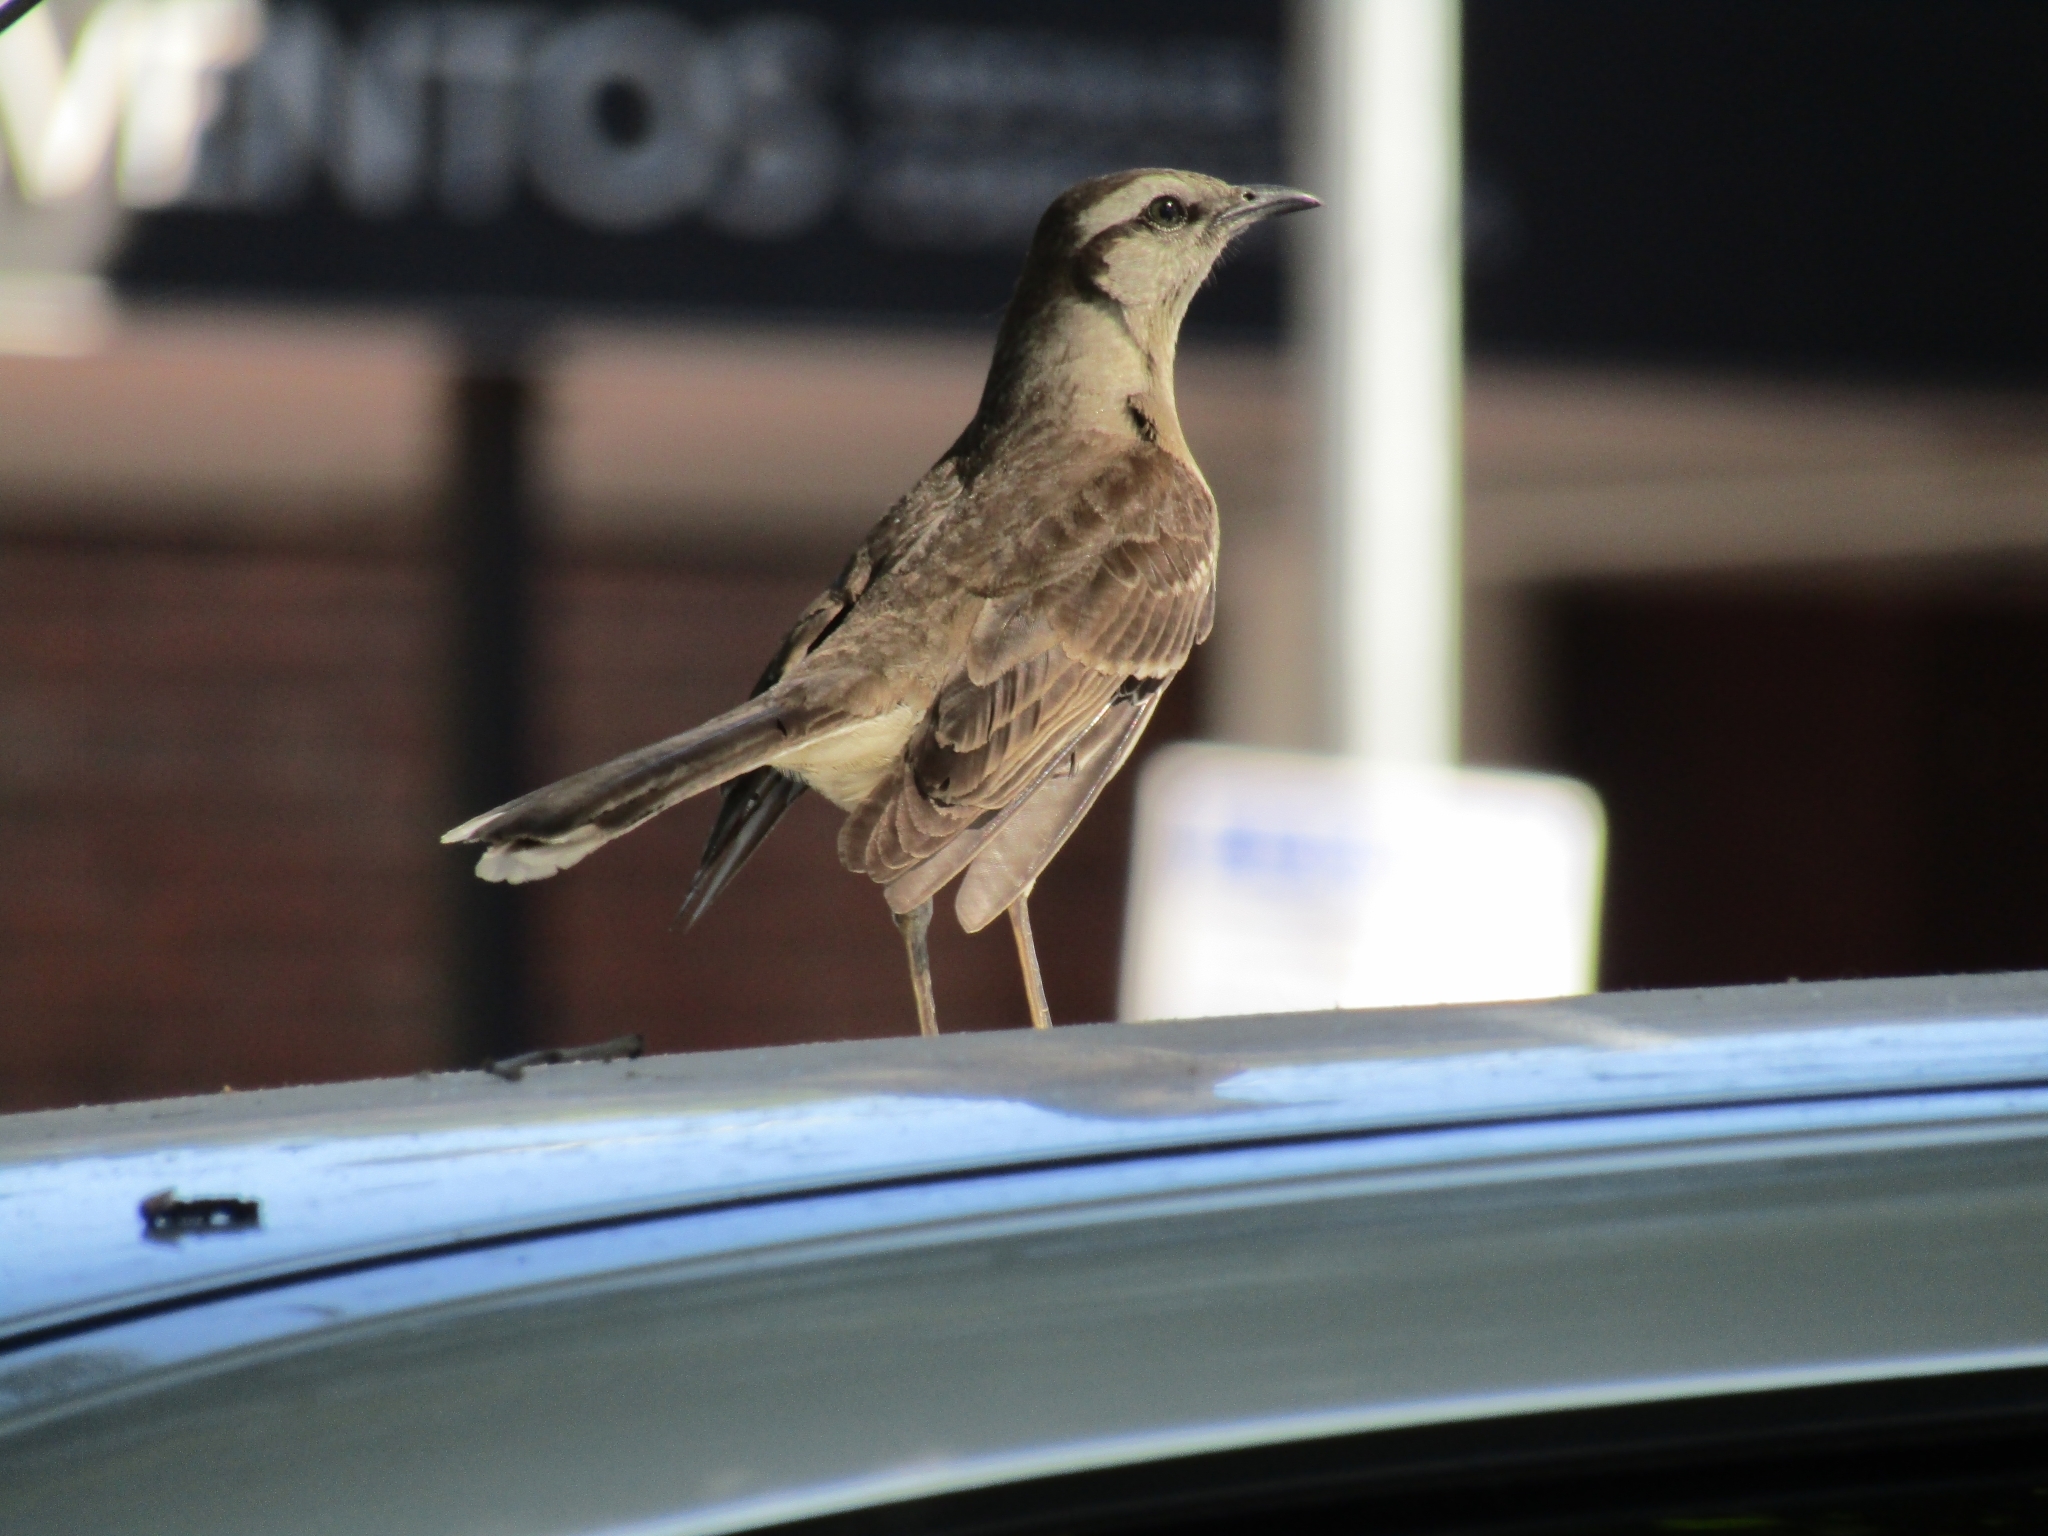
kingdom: Animalia
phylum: Chordata
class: Aves
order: Passeriformes
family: Mimidae
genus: Mimus
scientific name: Mimus saturninus
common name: Chalk-browed mockingbird
